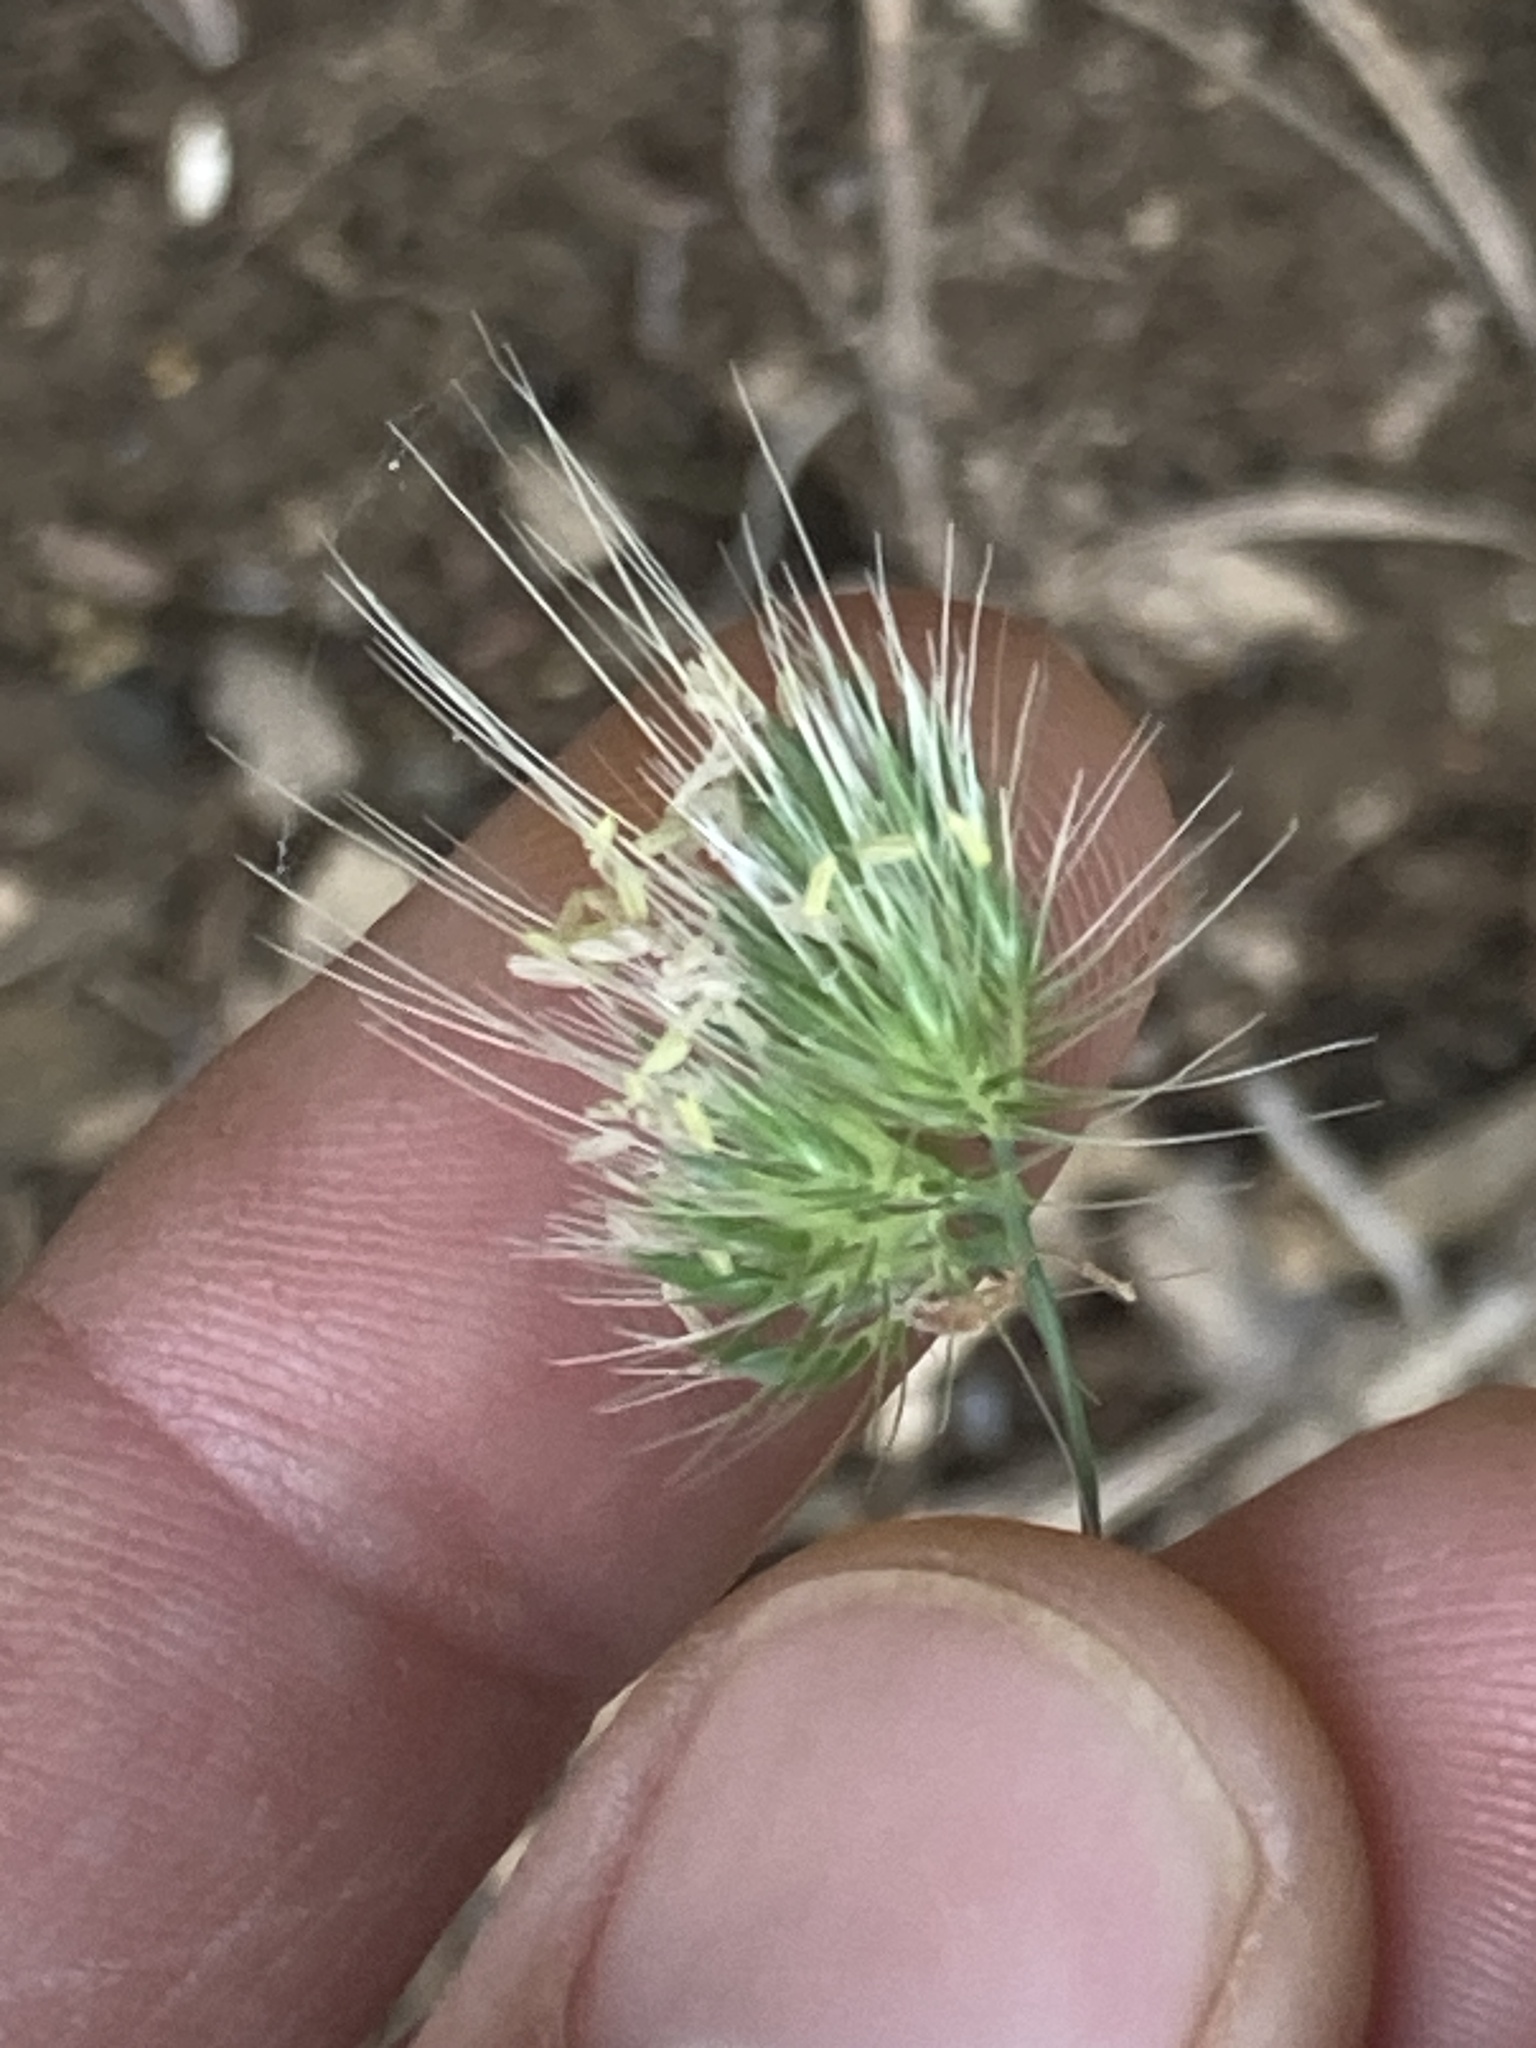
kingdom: Plantae
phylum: Tracheophyta
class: Liliopsida
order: Poales
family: Poaceae
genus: Cynosurus
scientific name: Cynosurus echinatus
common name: Rough dog's-tail
